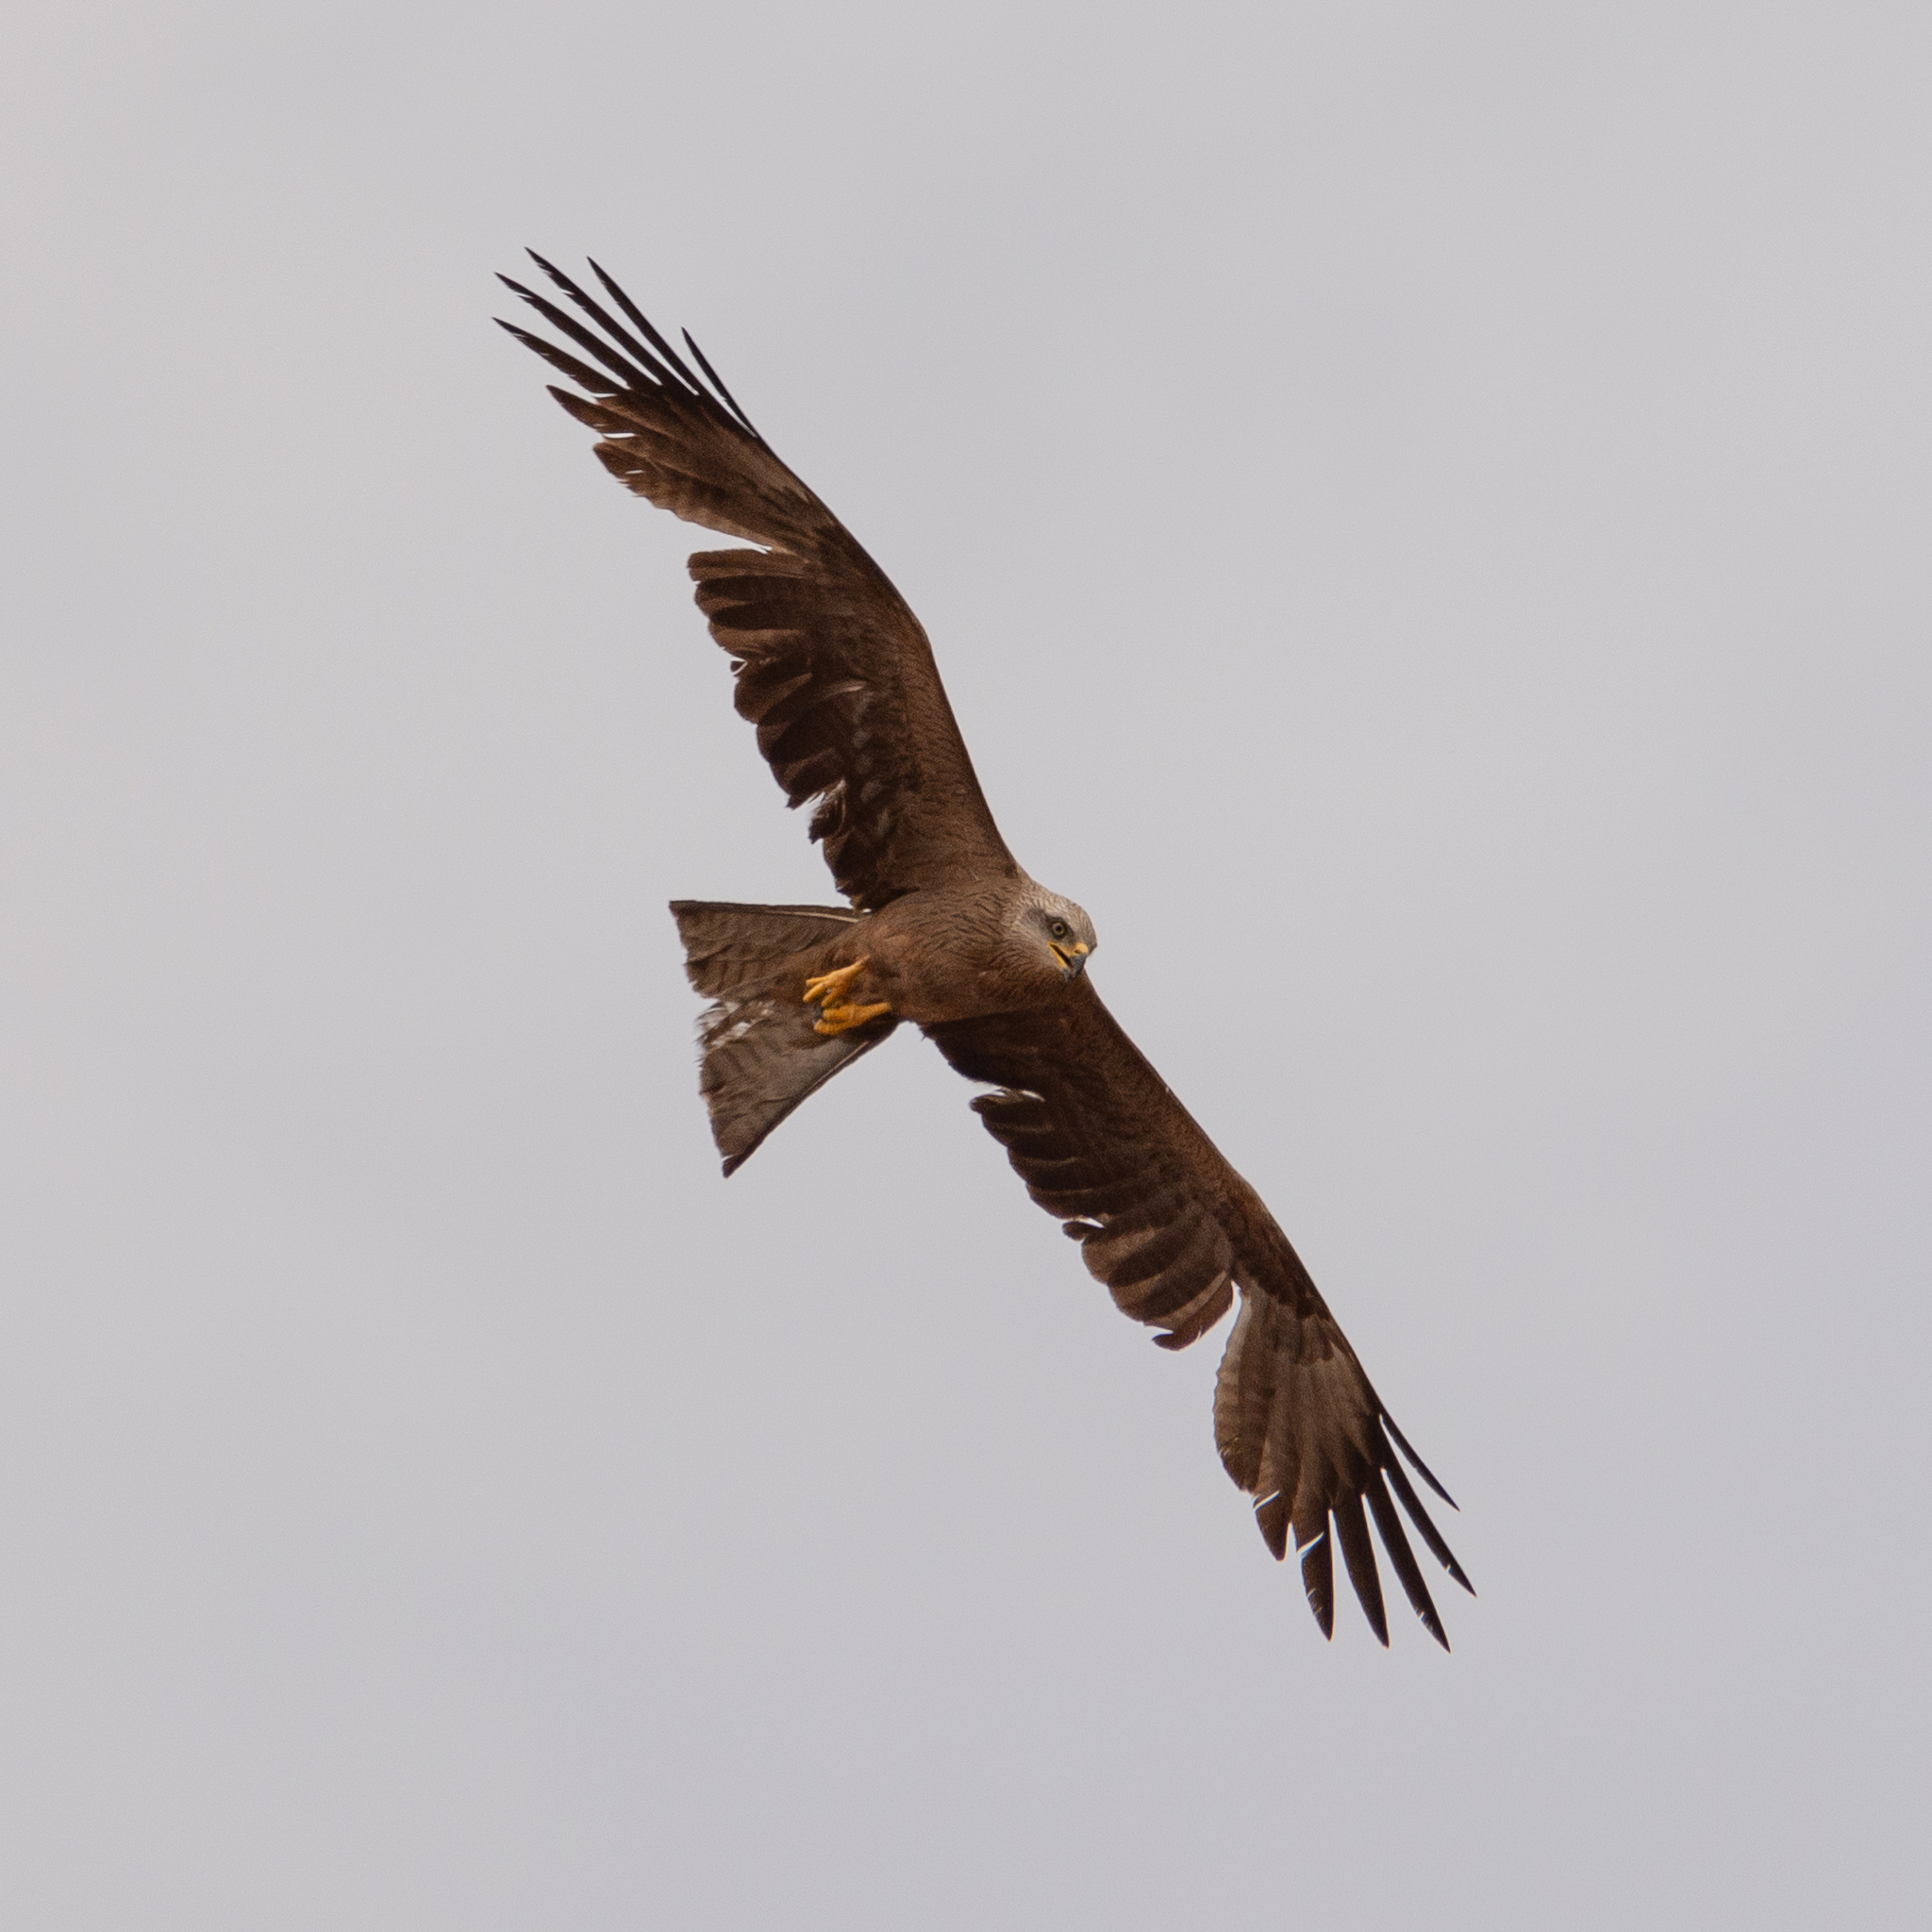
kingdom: Animalia
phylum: Chordata
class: Aves
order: Accipitriformes
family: Accipitridae
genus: Milvus
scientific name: Milvus migrans
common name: Black kite
